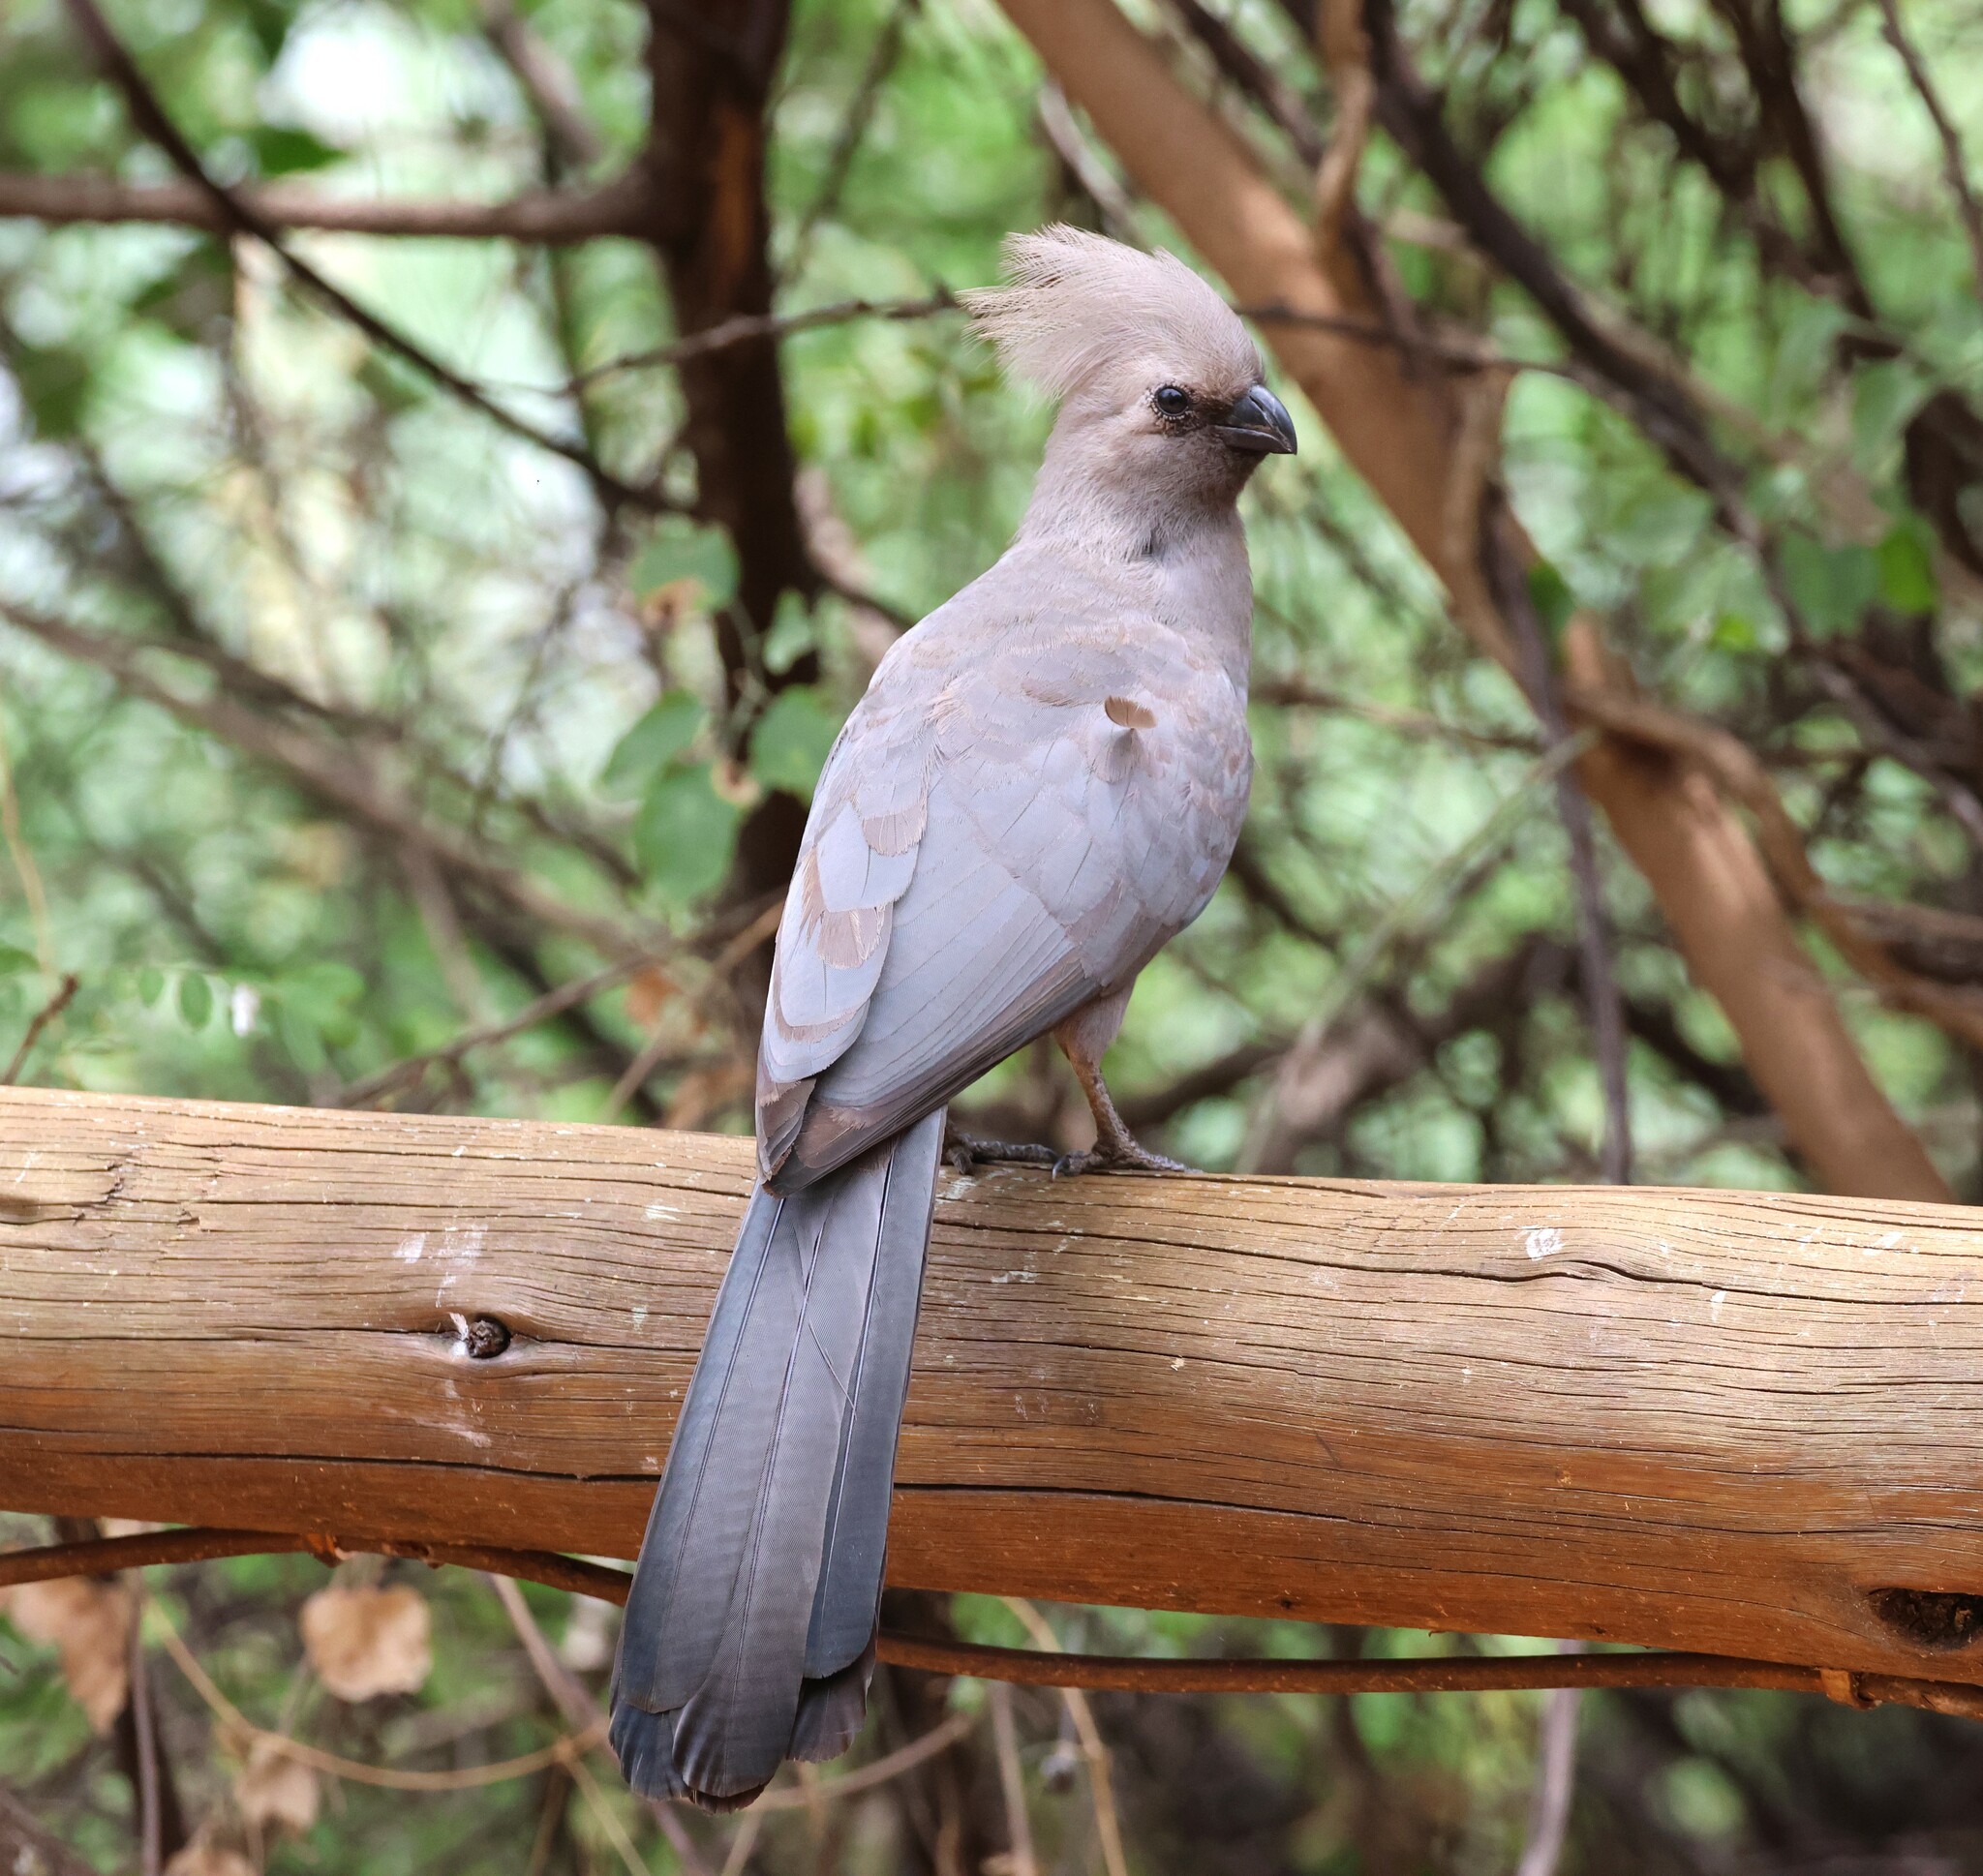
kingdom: Animalia
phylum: Chordata
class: Aves
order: Musophagiformes
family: Musophagidae
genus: Corythaixoides
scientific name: Corythaixoides concolor
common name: Grey go-away-bird
